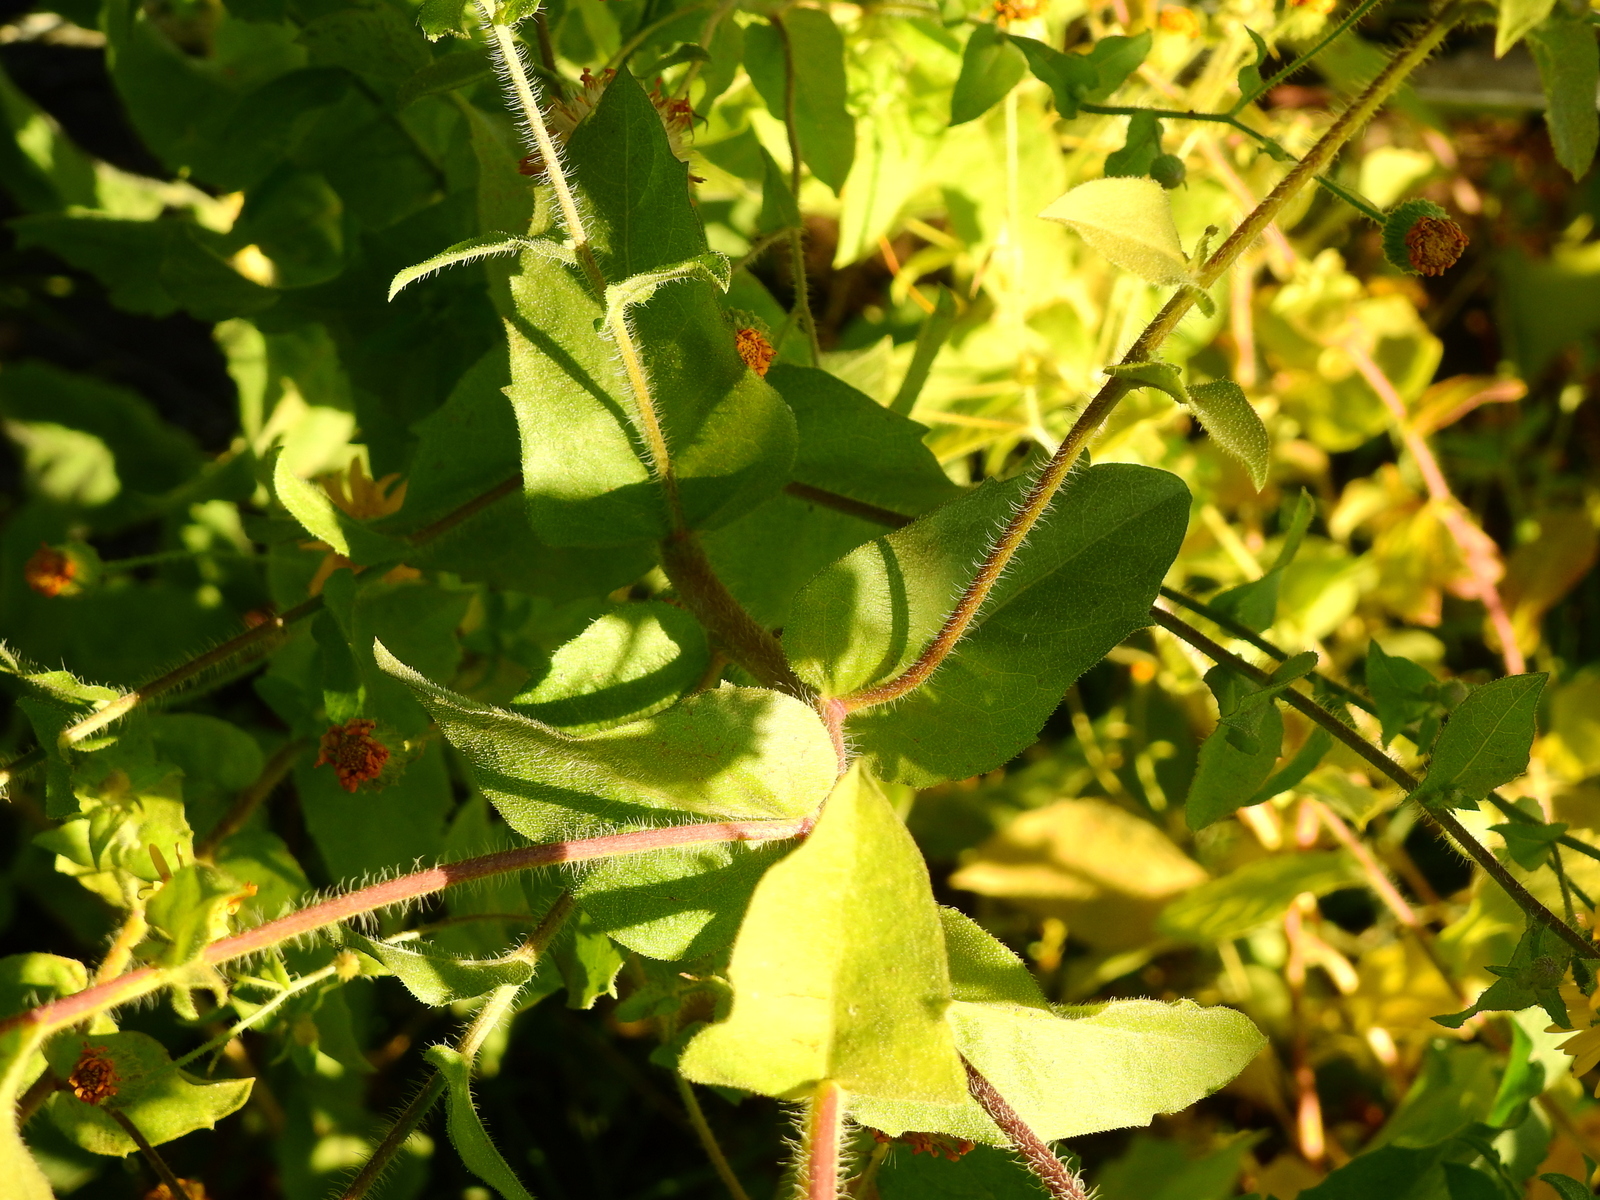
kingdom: Plantae
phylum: Tracheophyta
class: Magnoliopsida
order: Asterales
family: Asteraceae
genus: Heterotheca
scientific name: Heterotheca subaxillaris
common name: Camphorweed
